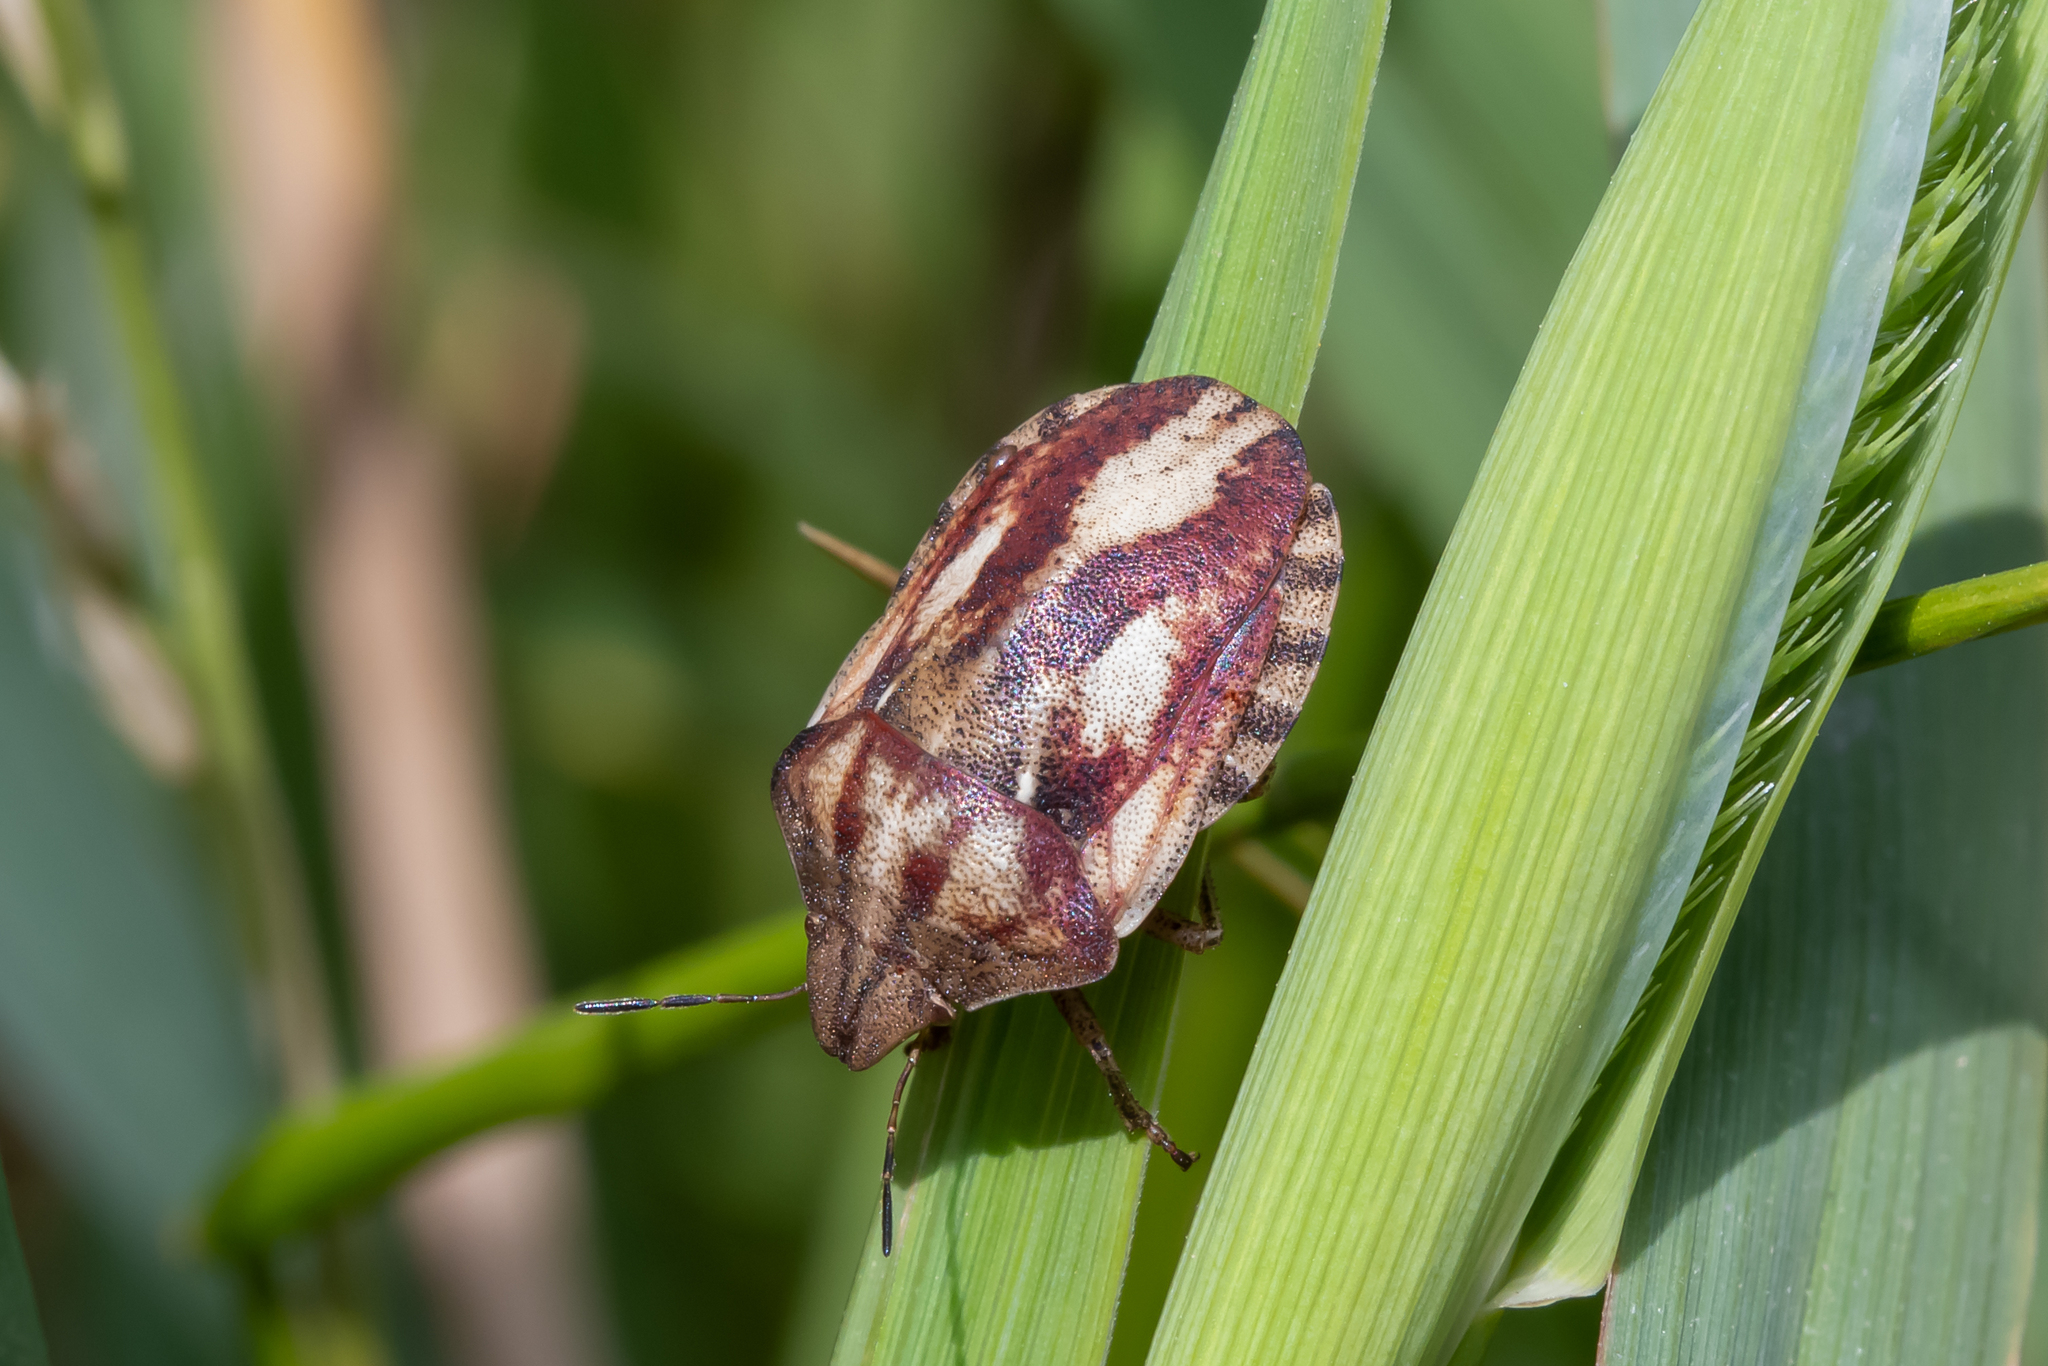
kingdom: Animalia
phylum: Arthropoda
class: Insecta
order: Hemiptera
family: Scutelleridae
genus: Eurygaster
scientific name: Eurygaster testudinaria
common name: Tortoise bug
